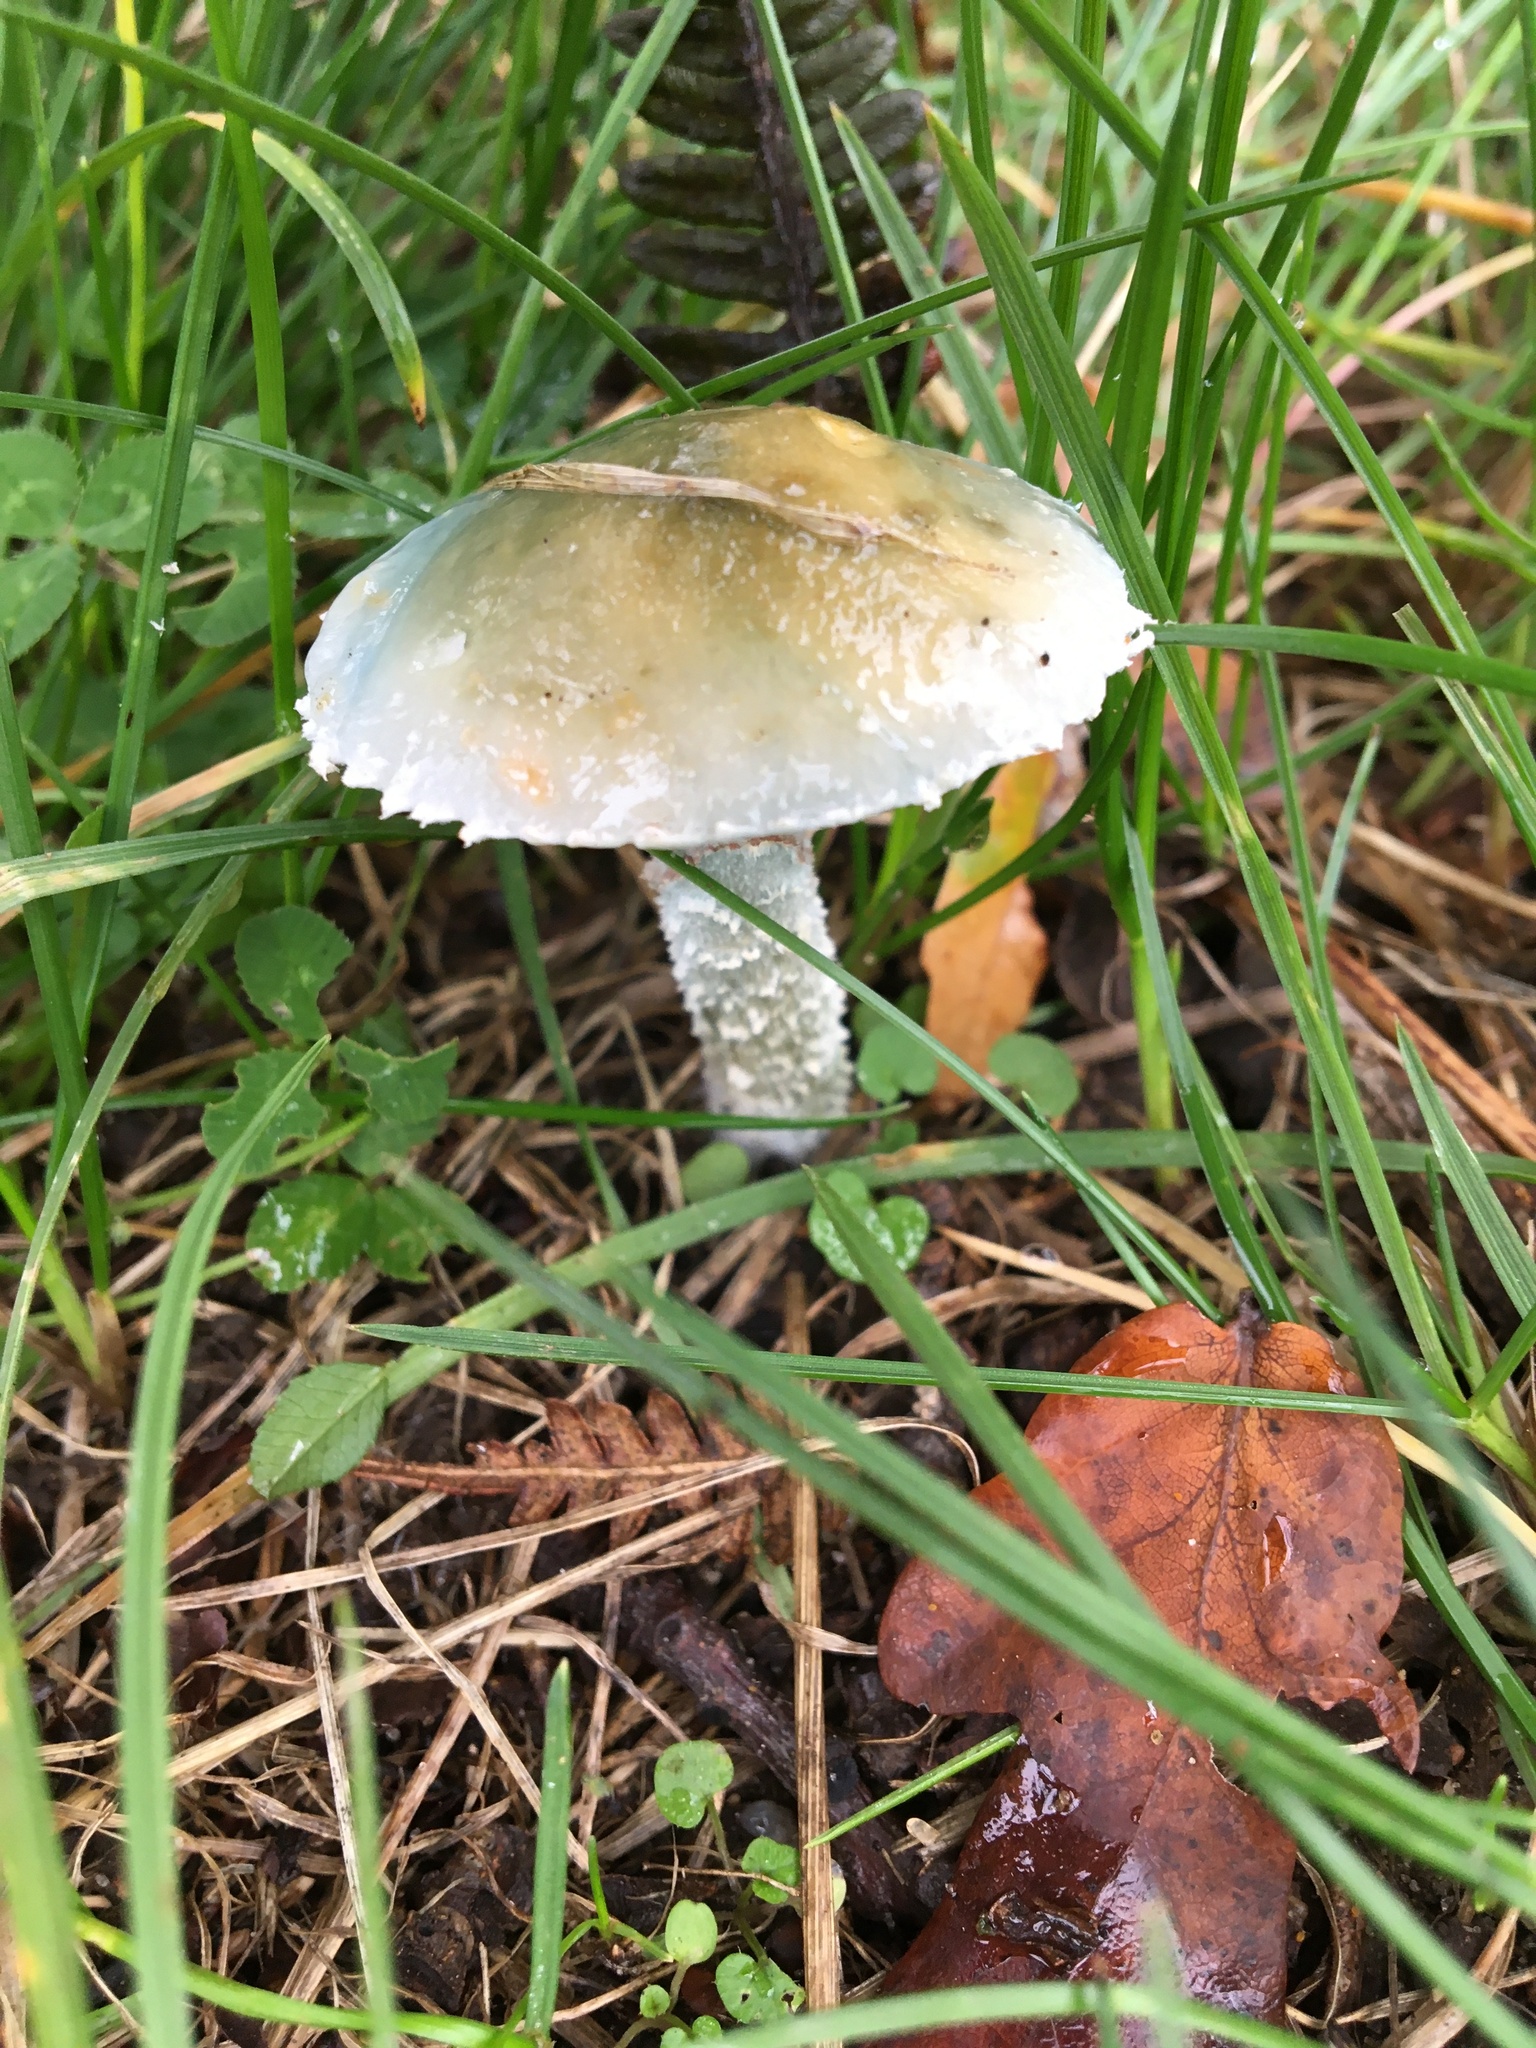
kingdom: Fungi
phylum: Basidiomycota
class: Agaricomycetes
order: Agaricales
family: Strophariaceae
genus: Stropharia
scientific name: Stropharia aeruginosa
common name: Verdigris roundhead
